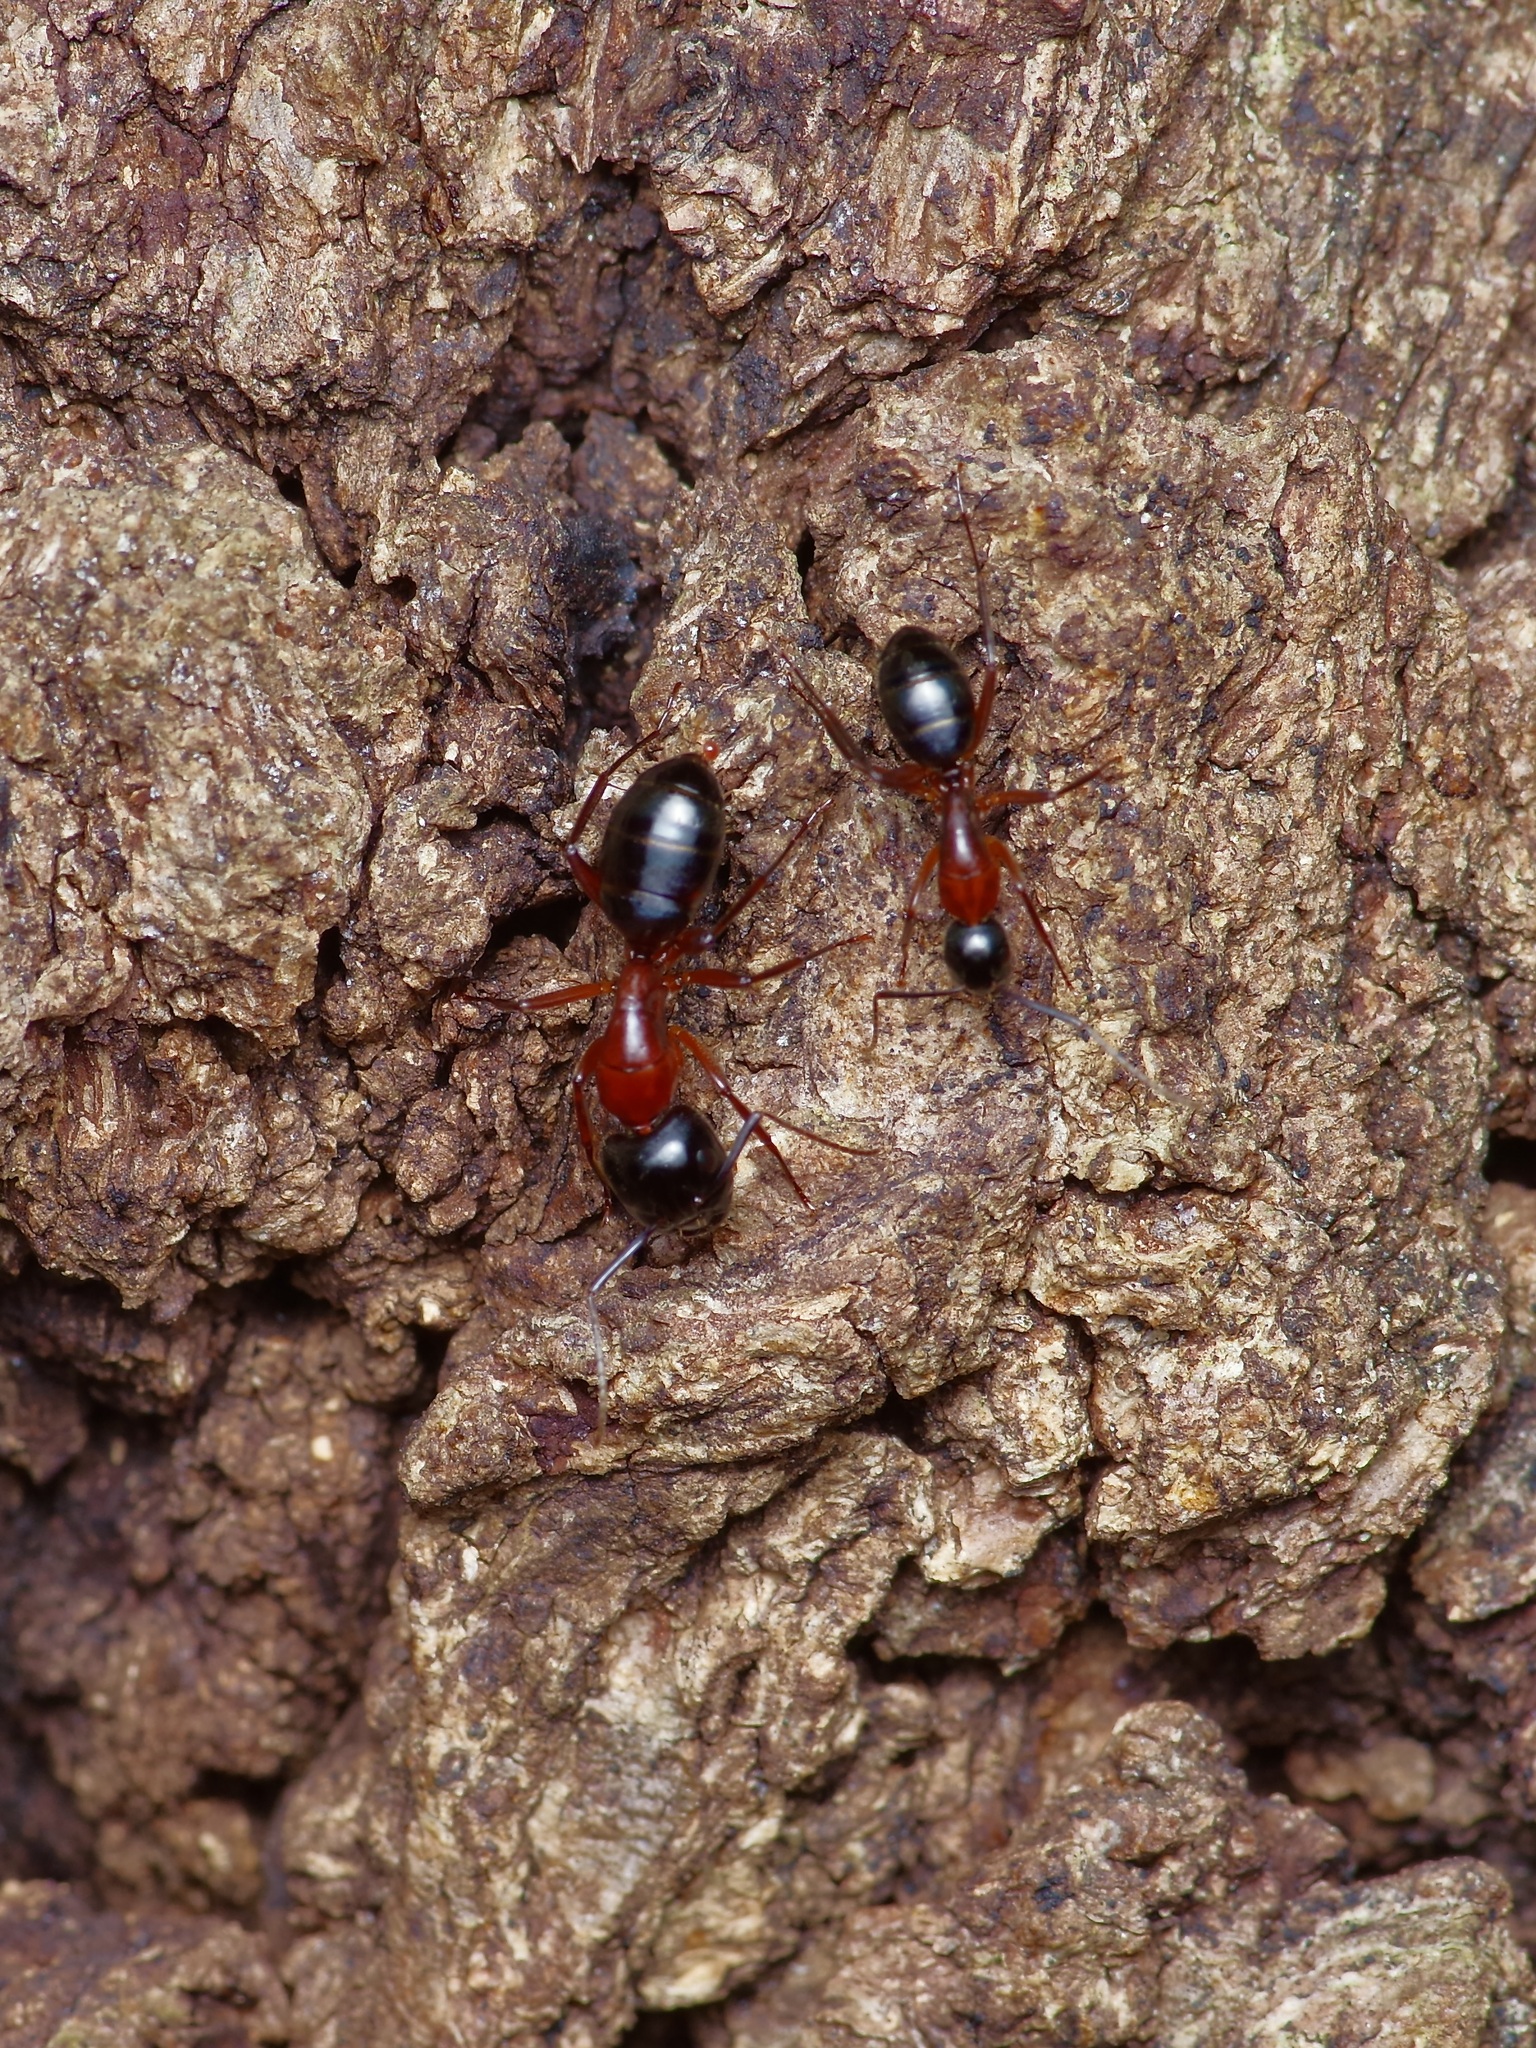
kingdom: Animalia
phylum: Arthropoda
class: Insecta
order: Hymenoptera
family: Formicidae
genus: Camponotus
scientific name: Camponotus texanus
